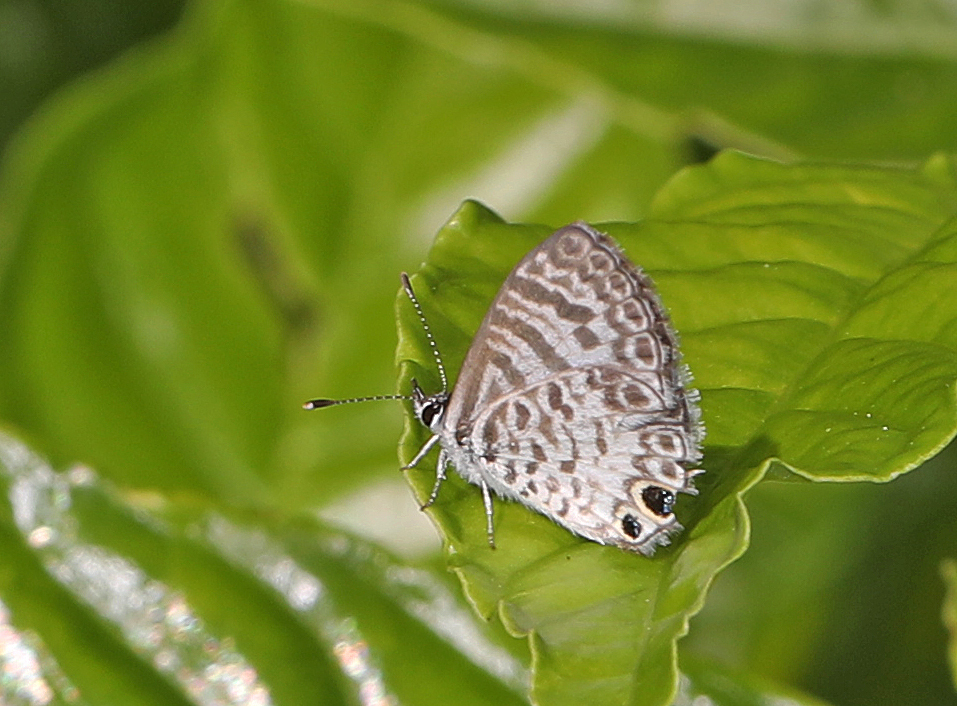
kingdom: Animalia
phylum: Arthropoda
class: Insecta
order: Lepidoptera
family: Lycaenidae
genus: Leptotes
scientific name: Leptotes cassius
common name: Cassius blue
